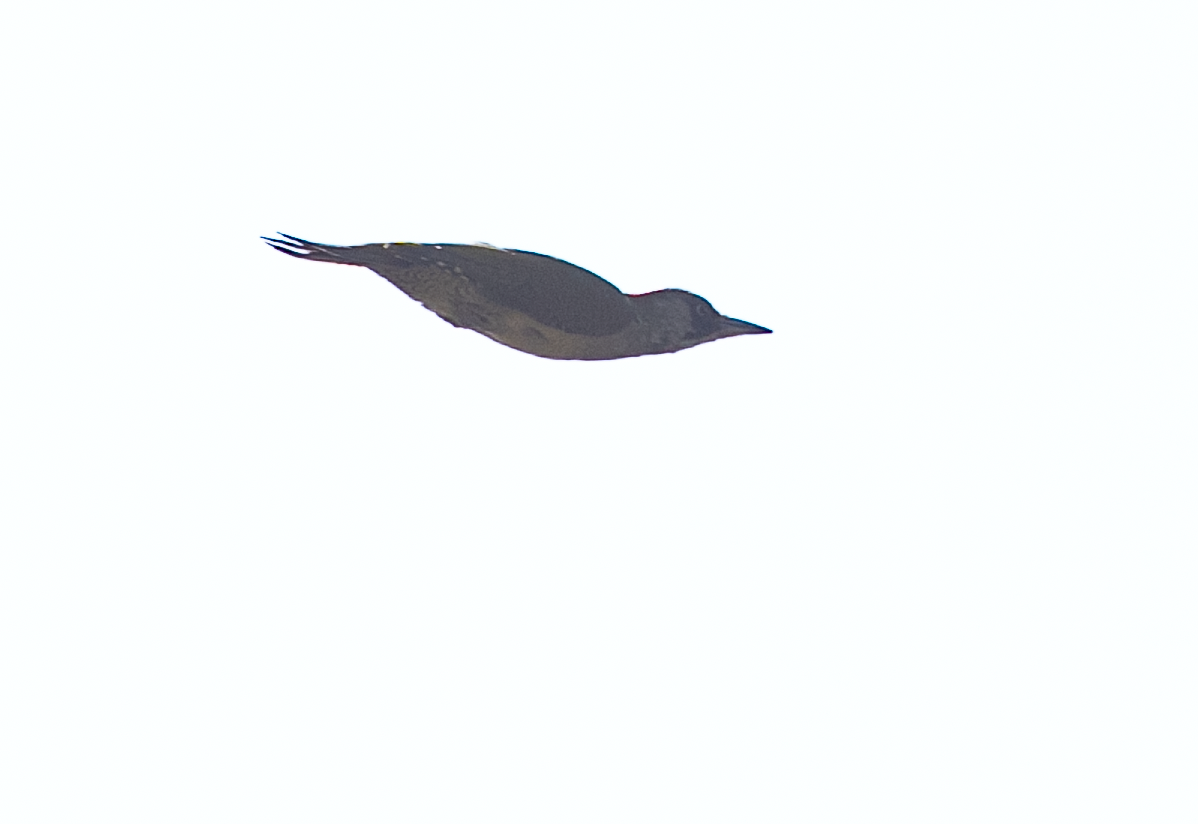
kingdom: Animalia
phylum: Chordata
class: Aves
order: Piciformes
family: Picidae
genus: Picus
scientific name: Picus viridis
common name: European green woodpecker
